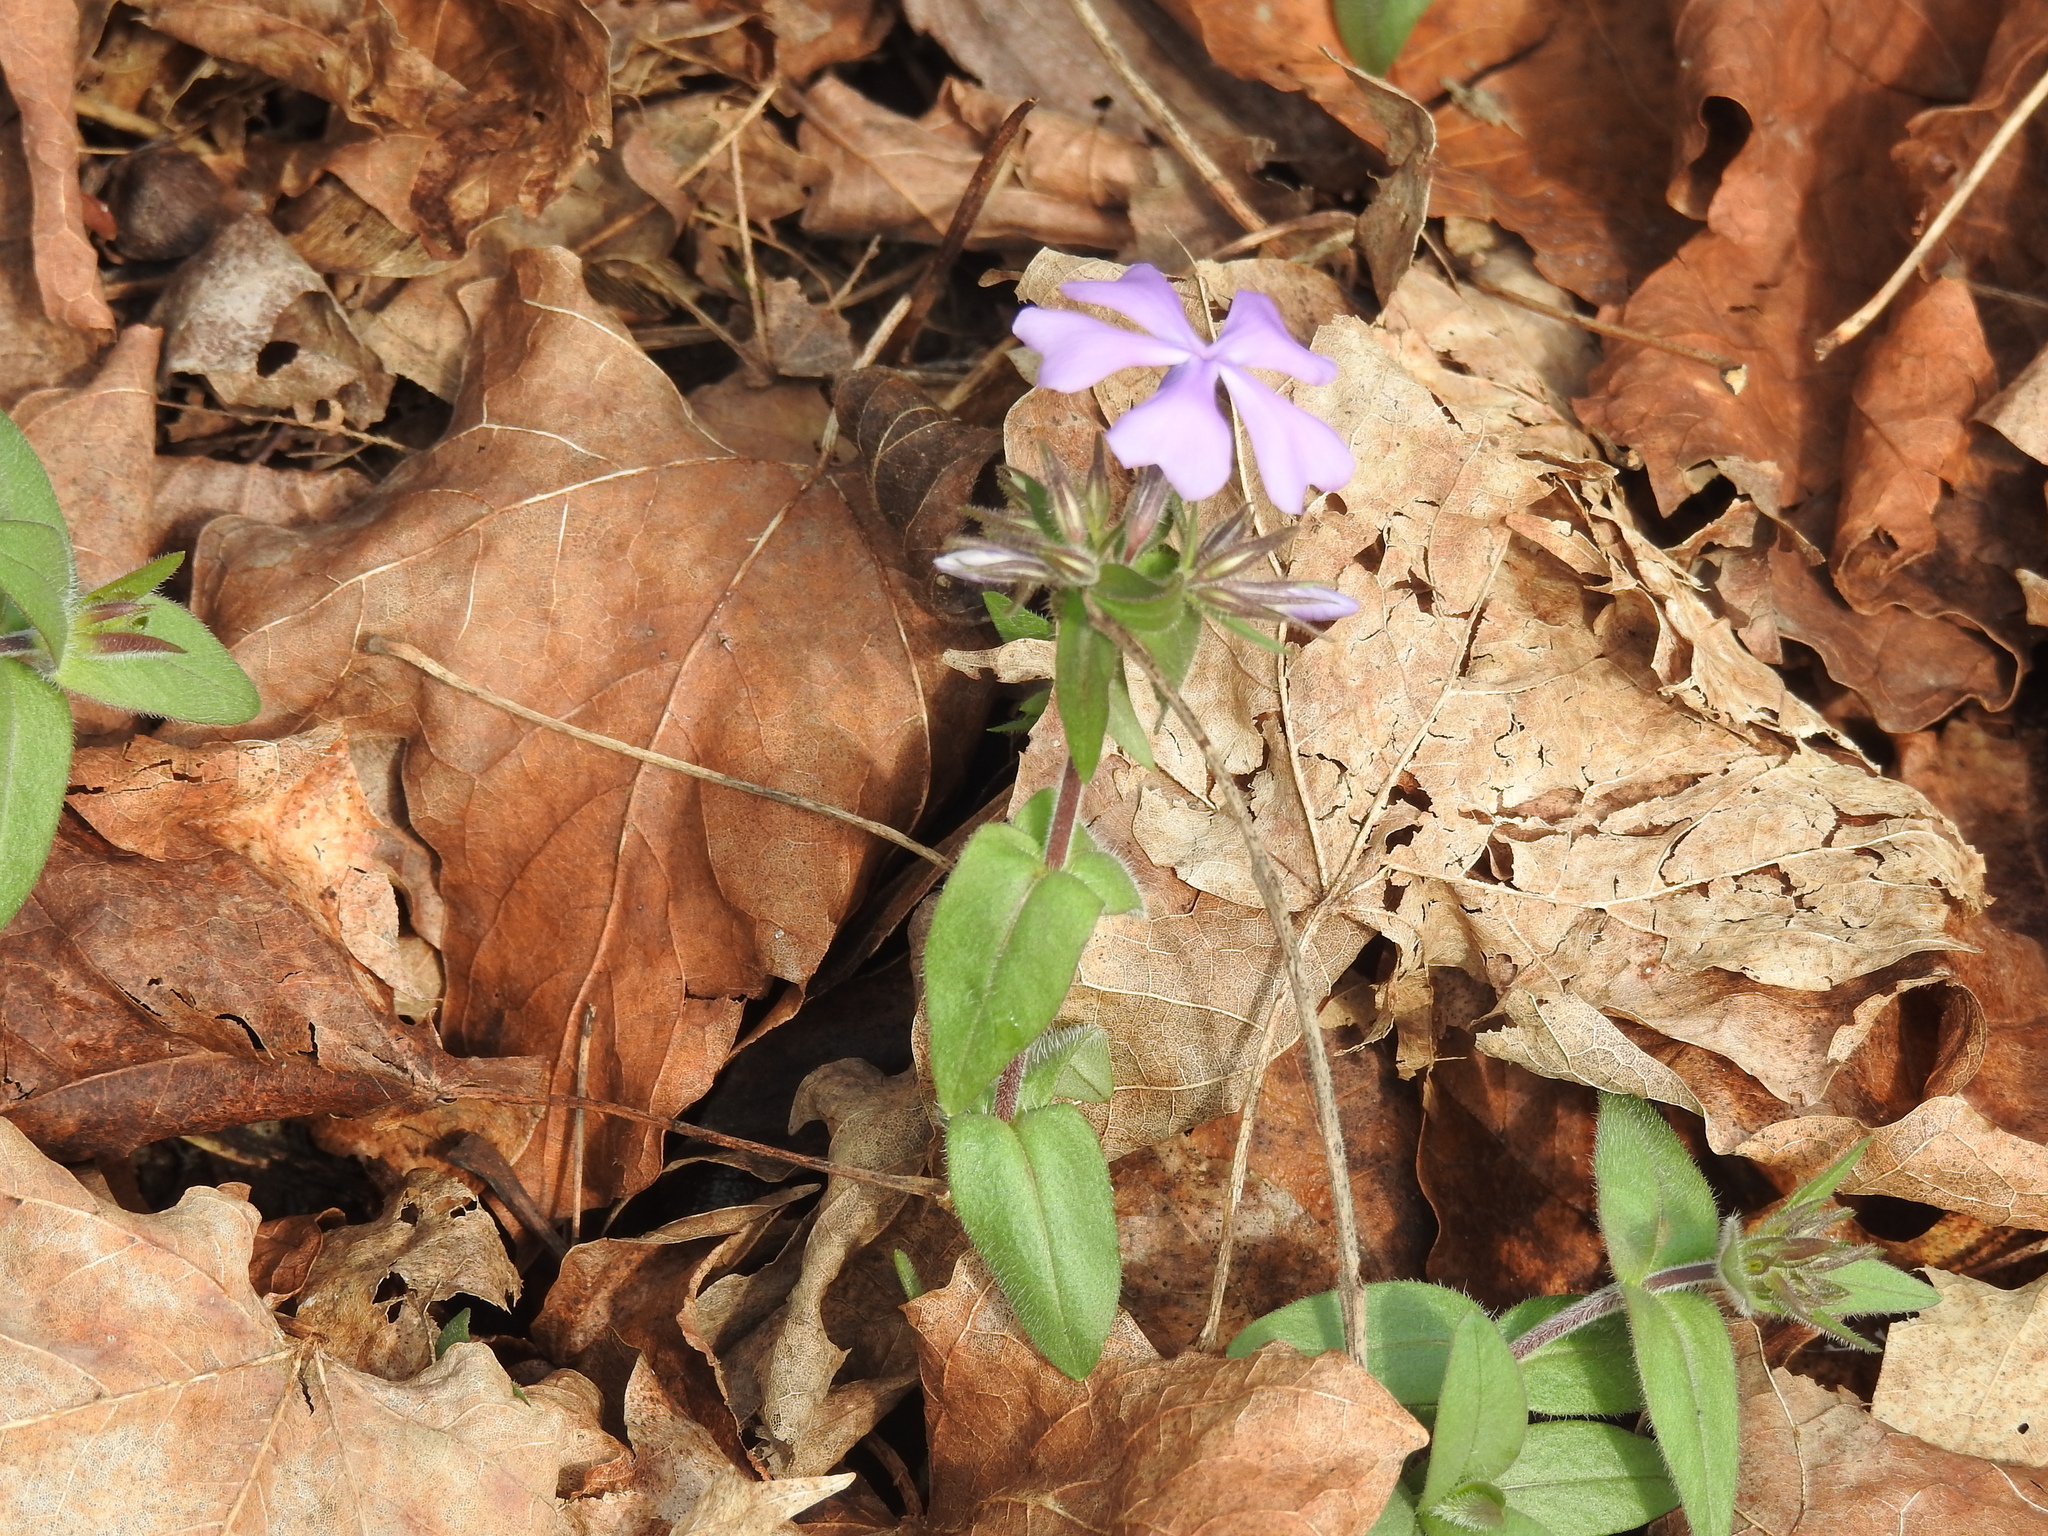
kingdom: Plantae
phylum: Tracheophyta
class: Magnoliopsida
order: Ericales
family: Polemoniaceae
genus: Phlox
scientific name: Phlox divaricata
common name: Blue phlox
